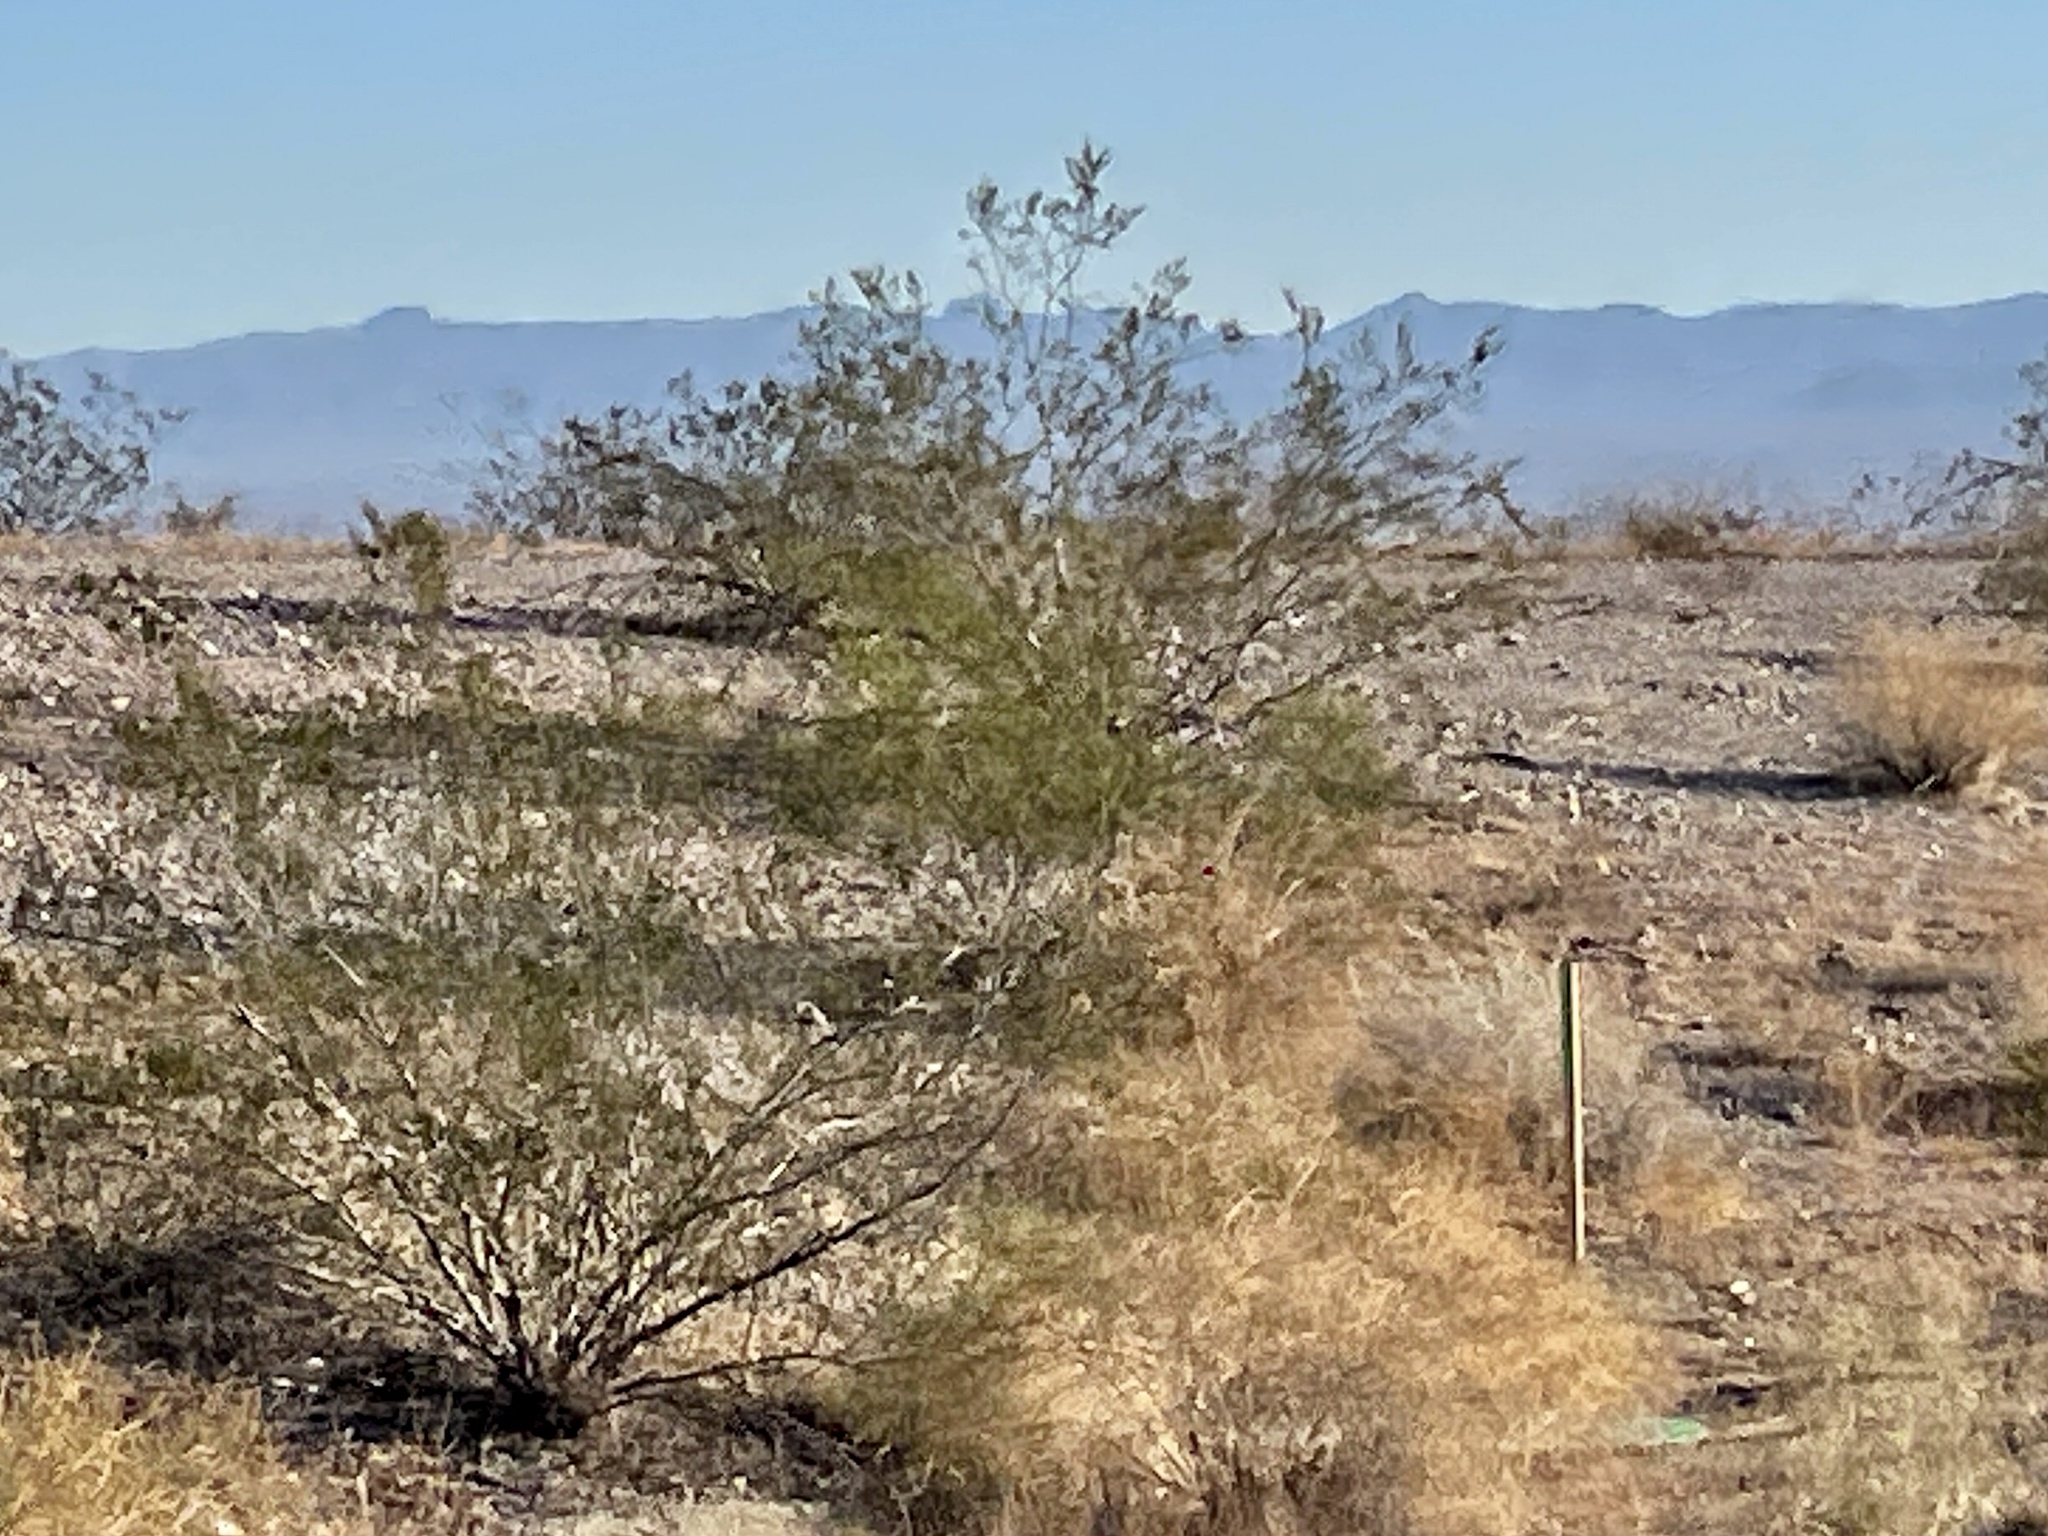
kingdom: Plantae
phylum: Tracheophyta
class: Magnoliopsida
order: Zygophyllales
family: Zygophyllaceae
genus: Larrea
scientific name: Larrea tridentata
